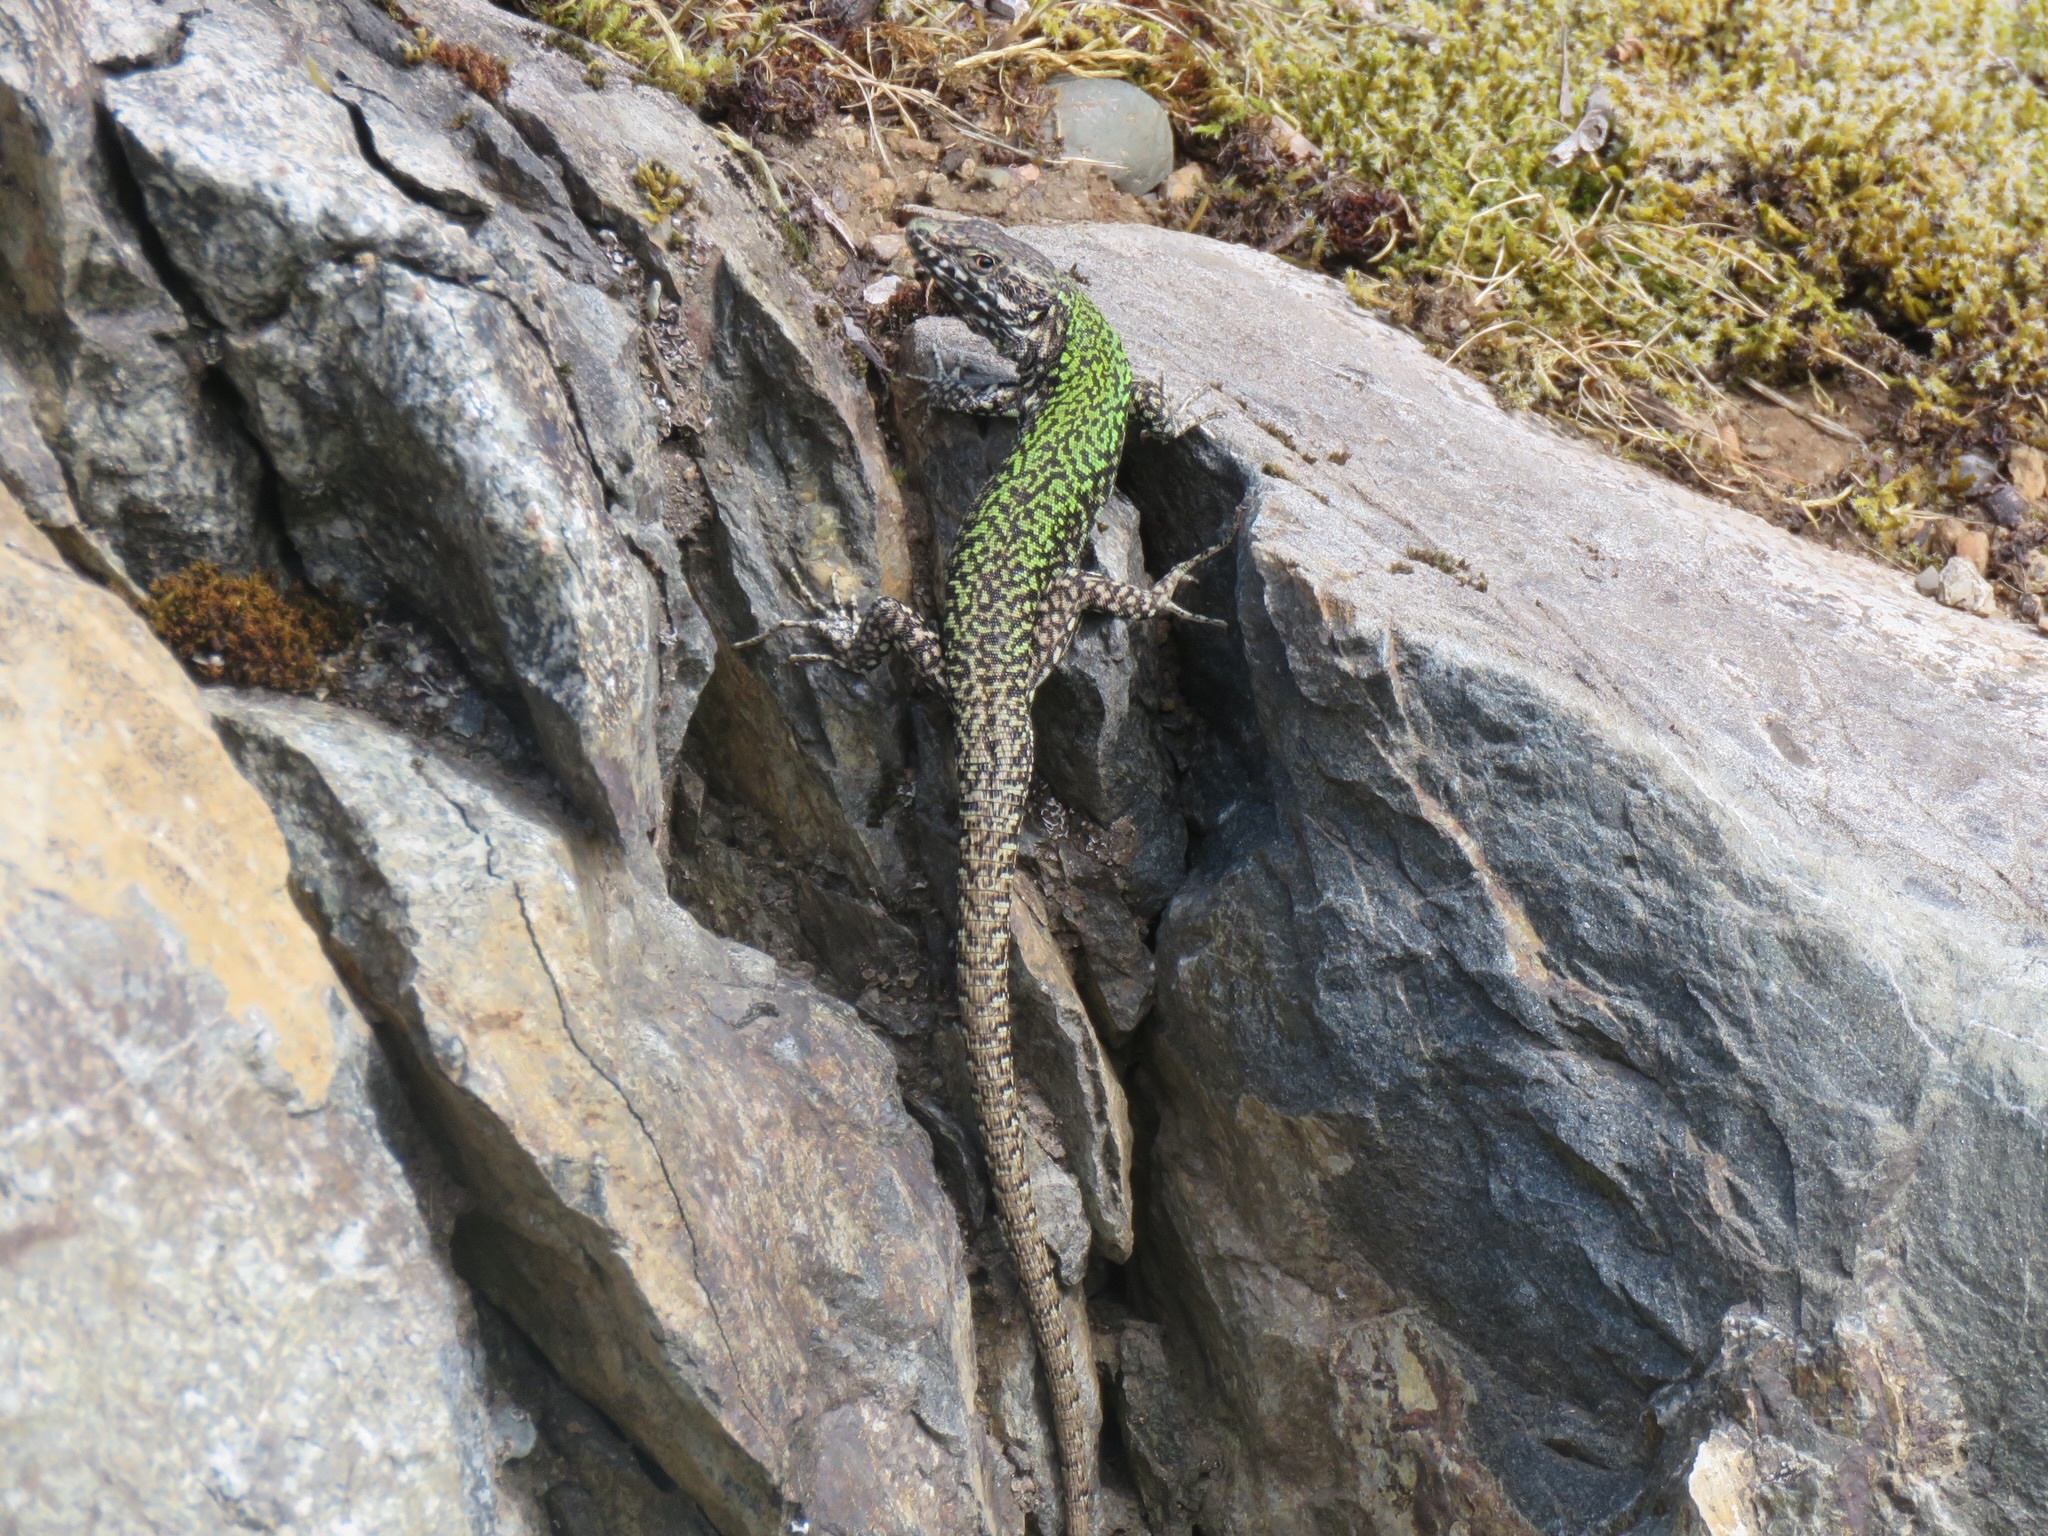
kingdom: Animalia
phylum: Chordata
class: Squamata
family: Lacertidae
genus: Podarcis
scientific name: Podarcis muralis
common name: Common wall lizard
